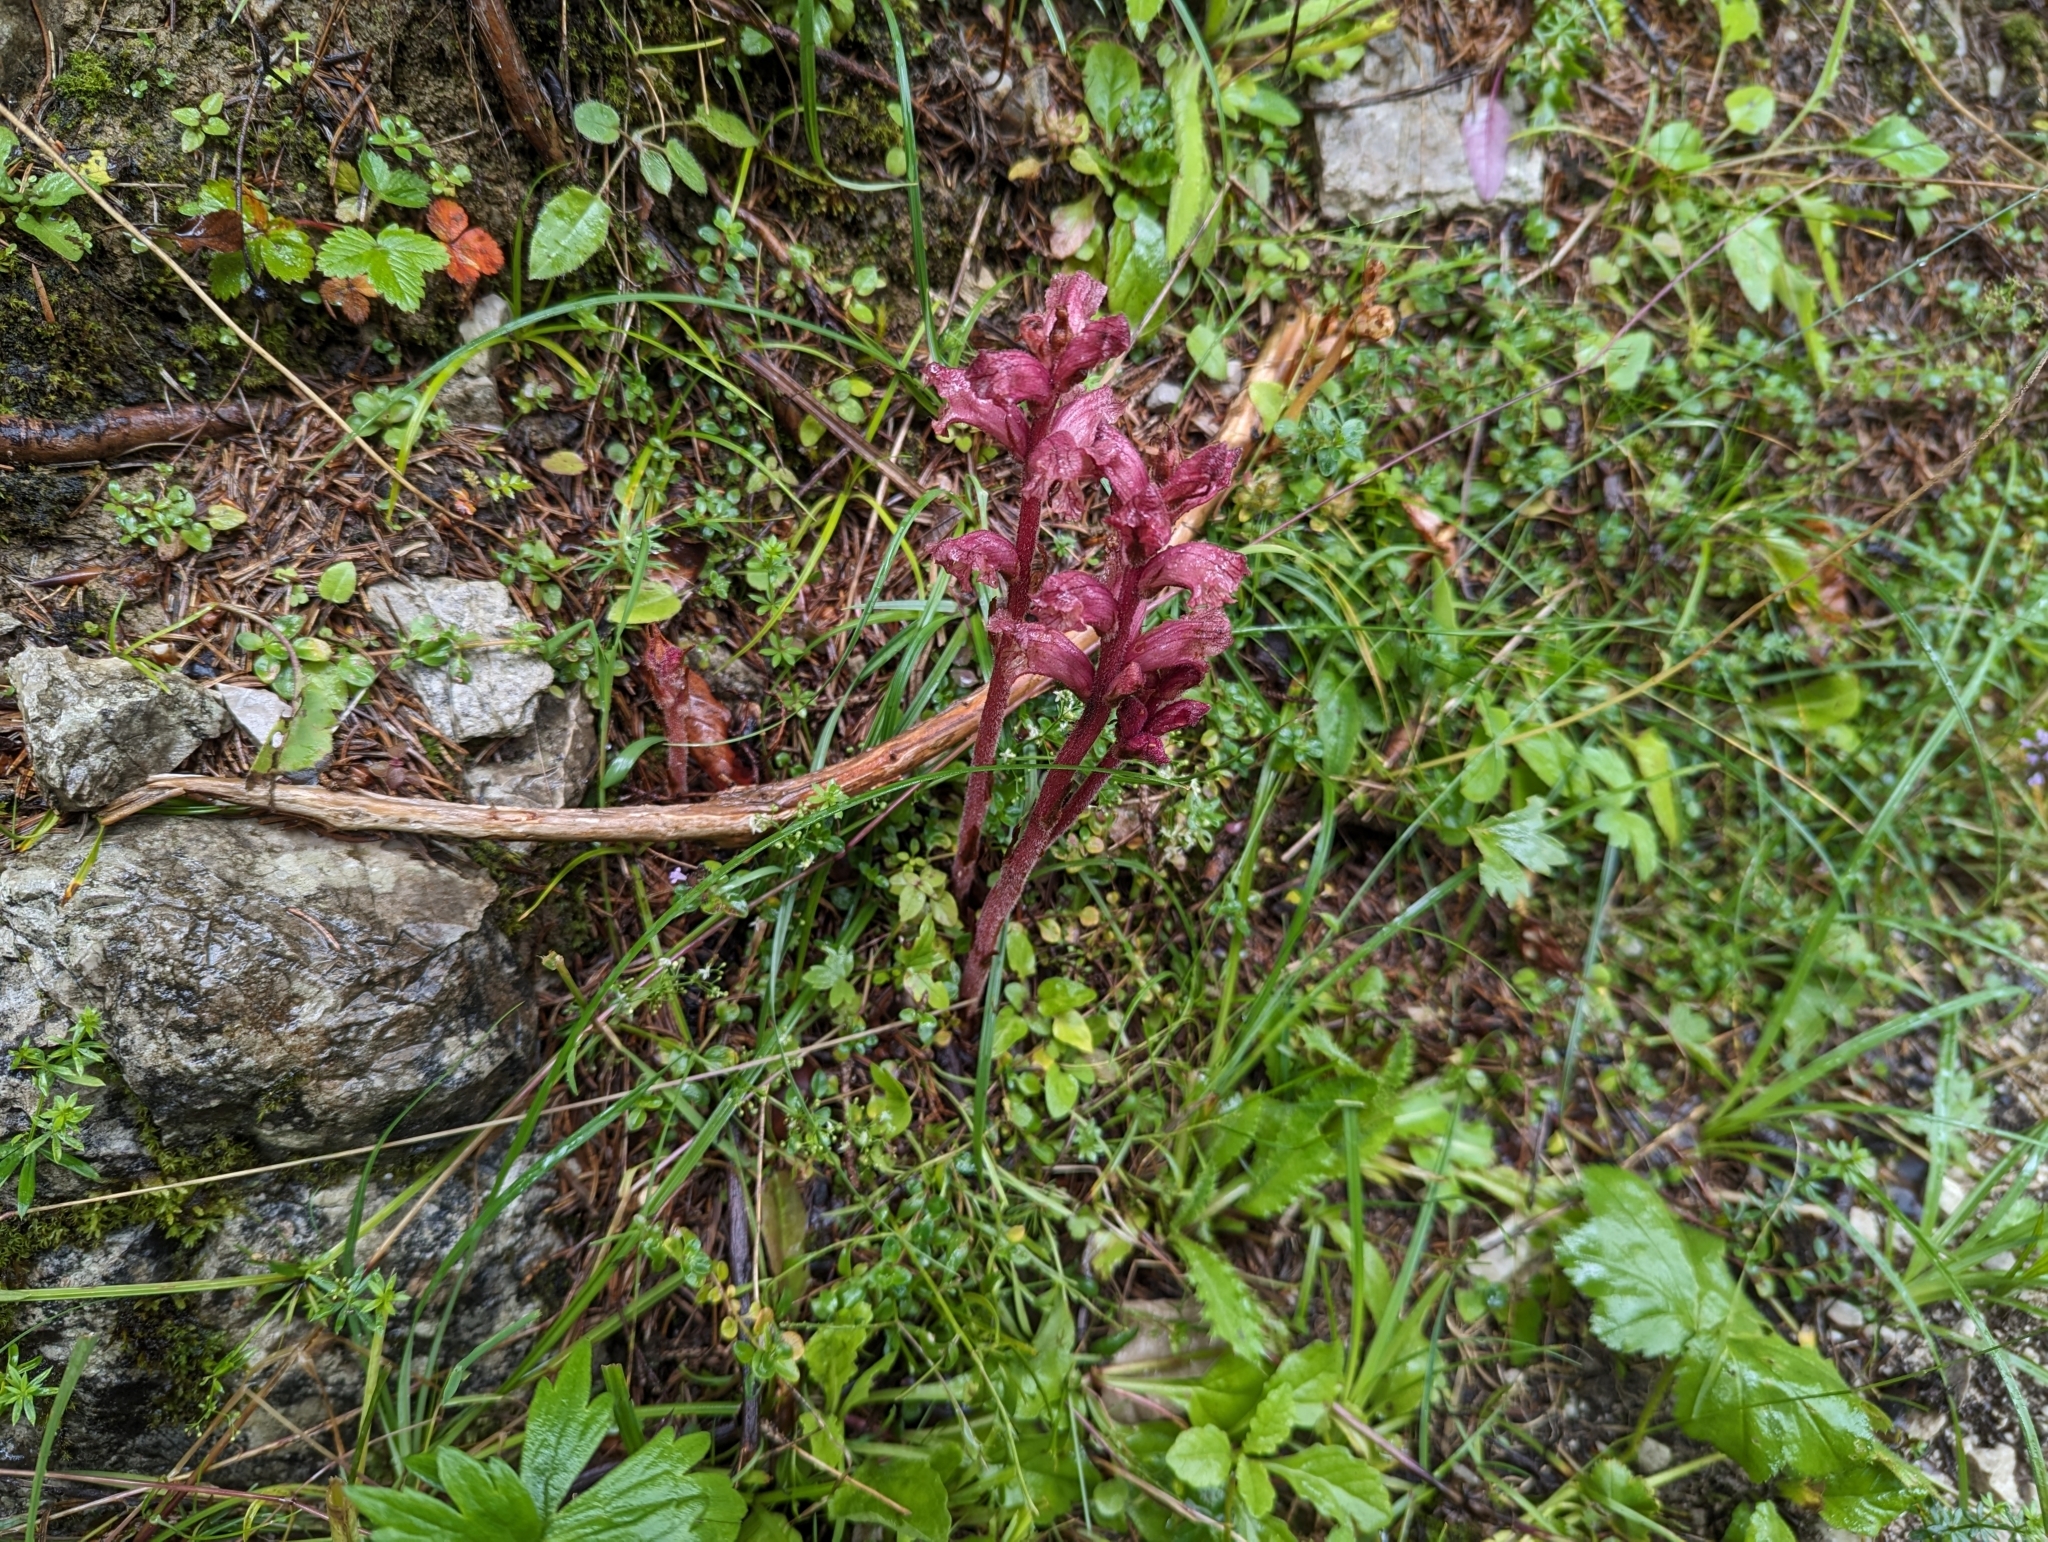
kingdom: Plantae
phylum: Tracheophyta
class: Magnoliopsida
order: Lamiales
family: Orobanchaceae
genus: Orobanche
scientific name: Orobanche alba
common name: Thyme broomrape
